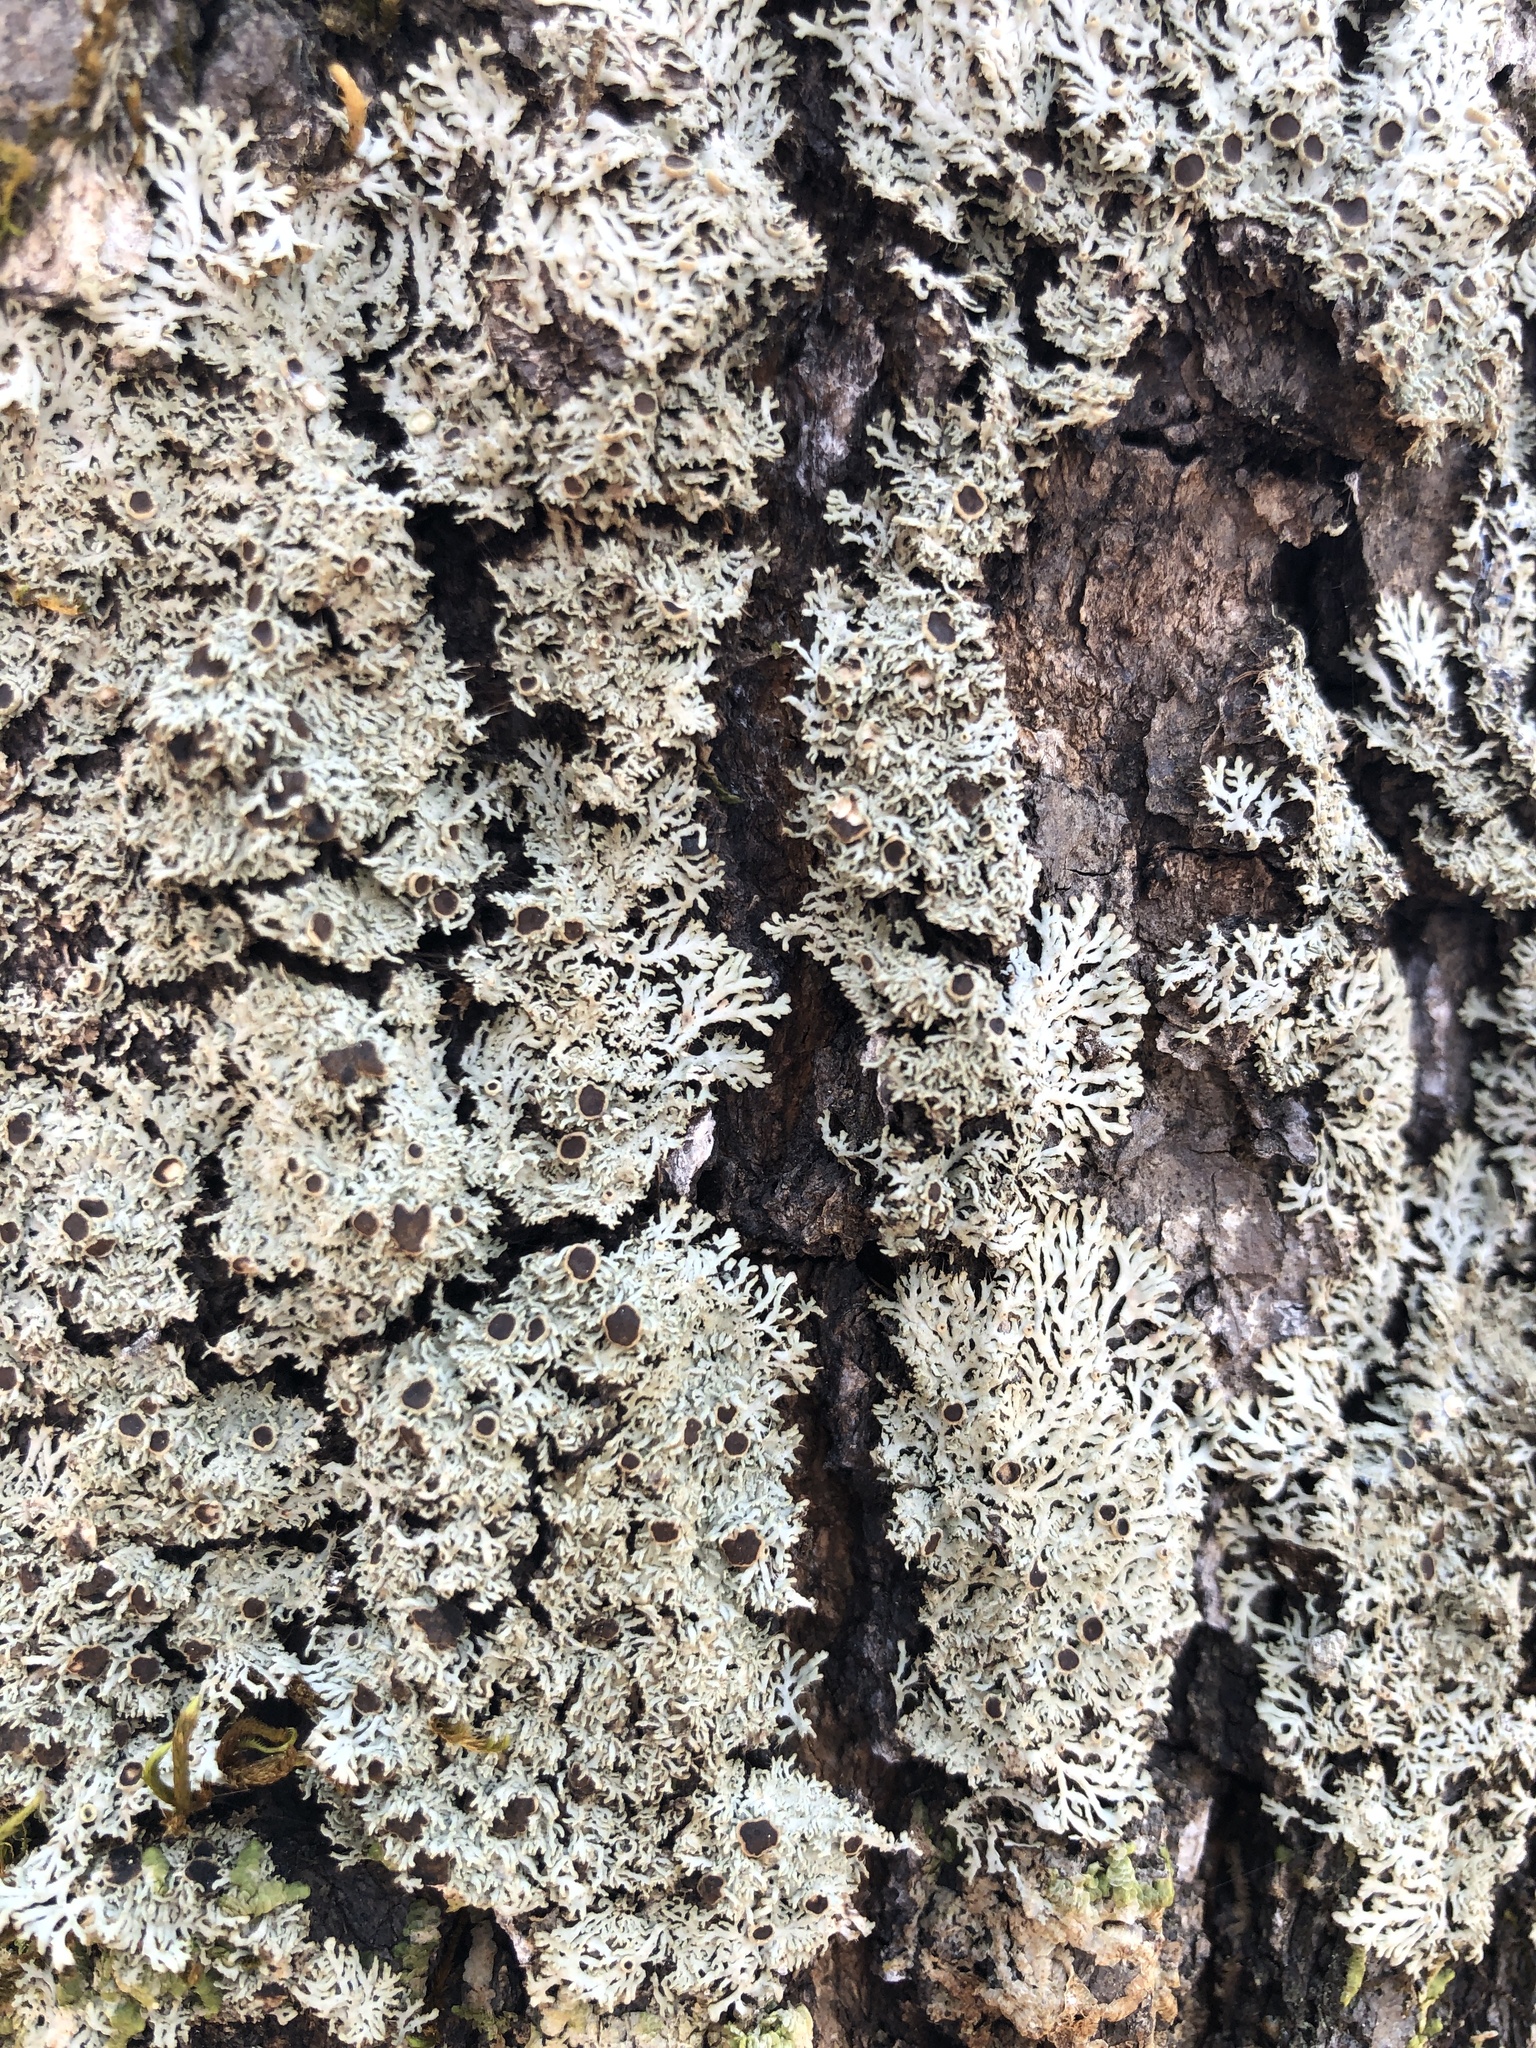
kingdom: Fungi
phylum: Ascomycota
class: Lecanoromycetes
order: Caliciales
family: Physciaceae
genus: Kurokawia
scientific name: Kurokawia palmulata
